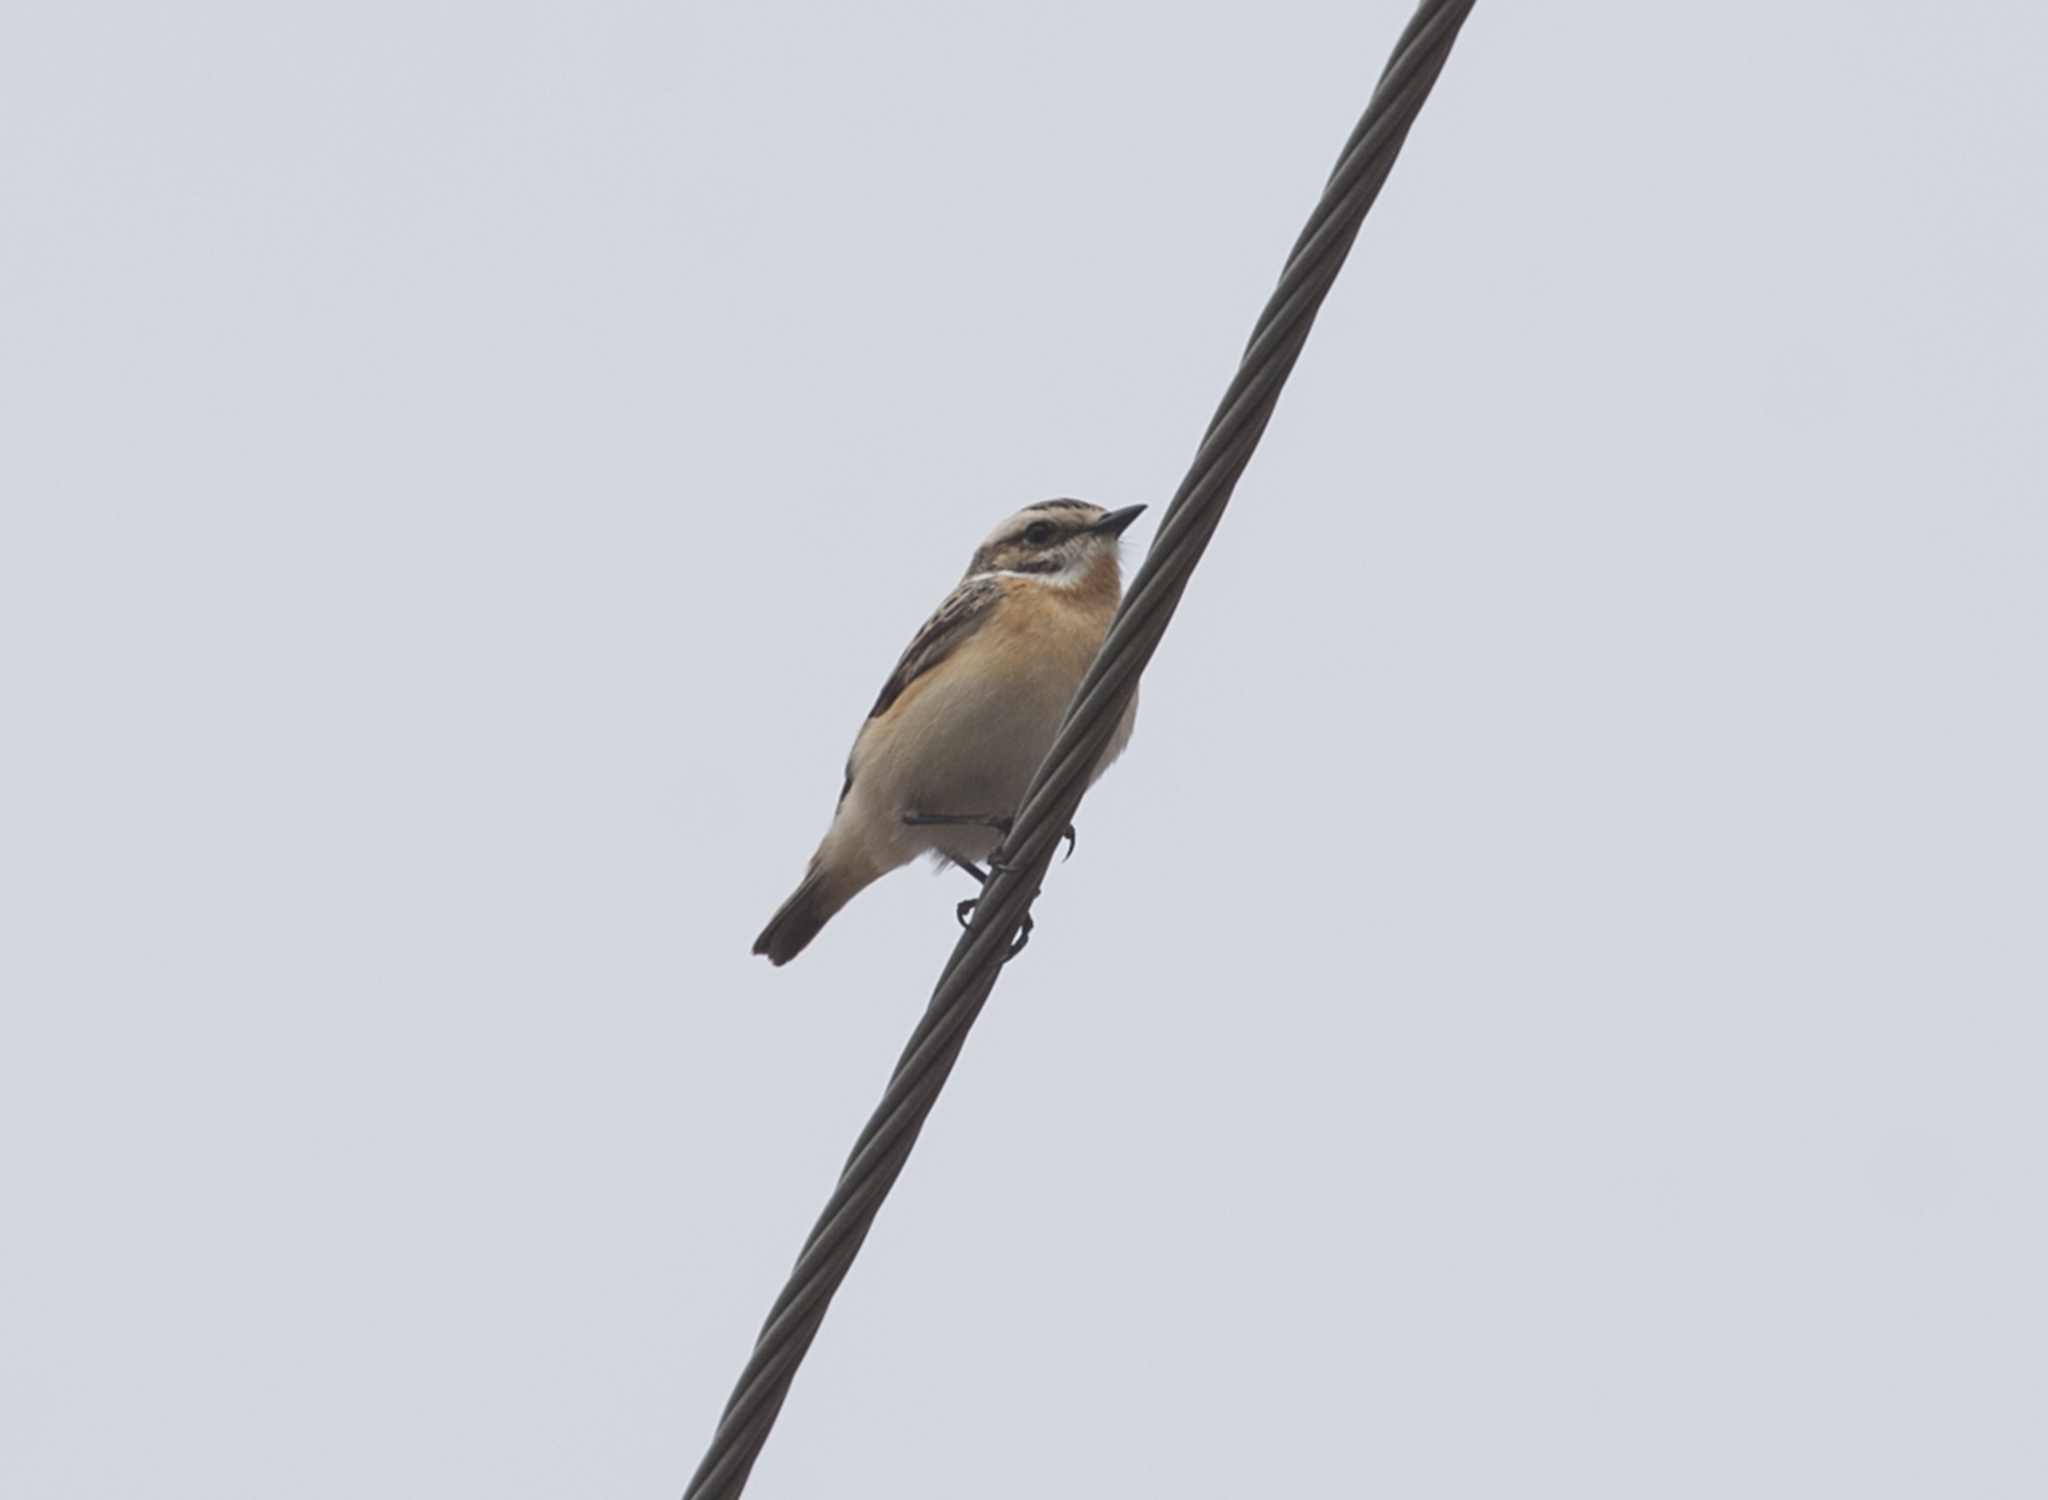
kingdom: Animalia
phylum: Chordata
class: Aves
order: Passeriformes
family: Muscicapidae
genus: Saxicola
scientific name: Saxicola rubetra
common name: Whinchat
